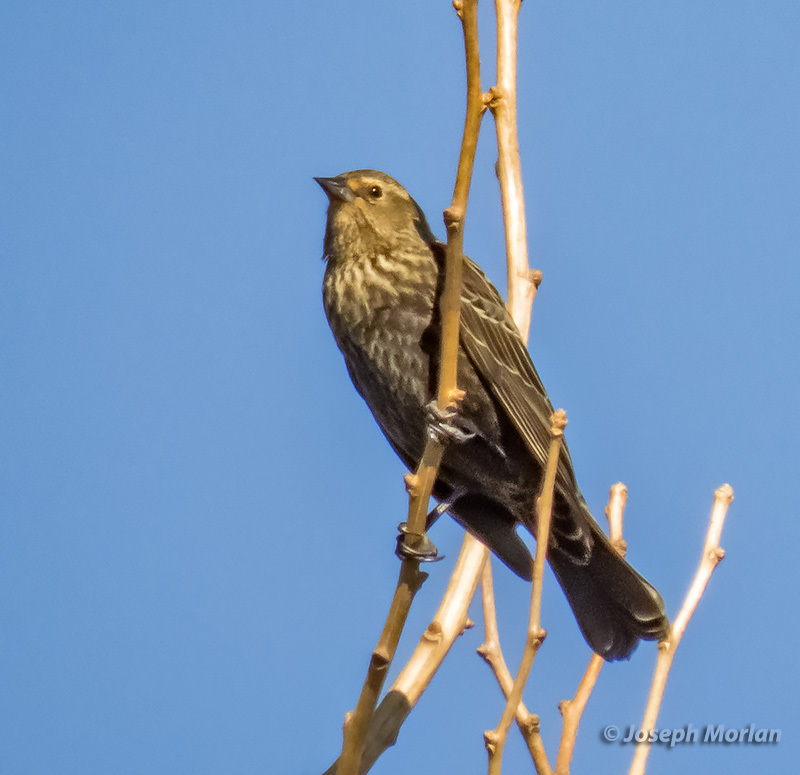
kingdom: Animalia
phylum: Chordata
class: Aves
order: Passeriformes
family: Icteridae
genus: Agelaius
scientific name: Agelaius phoeniceus
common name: Red-winged blackbird
